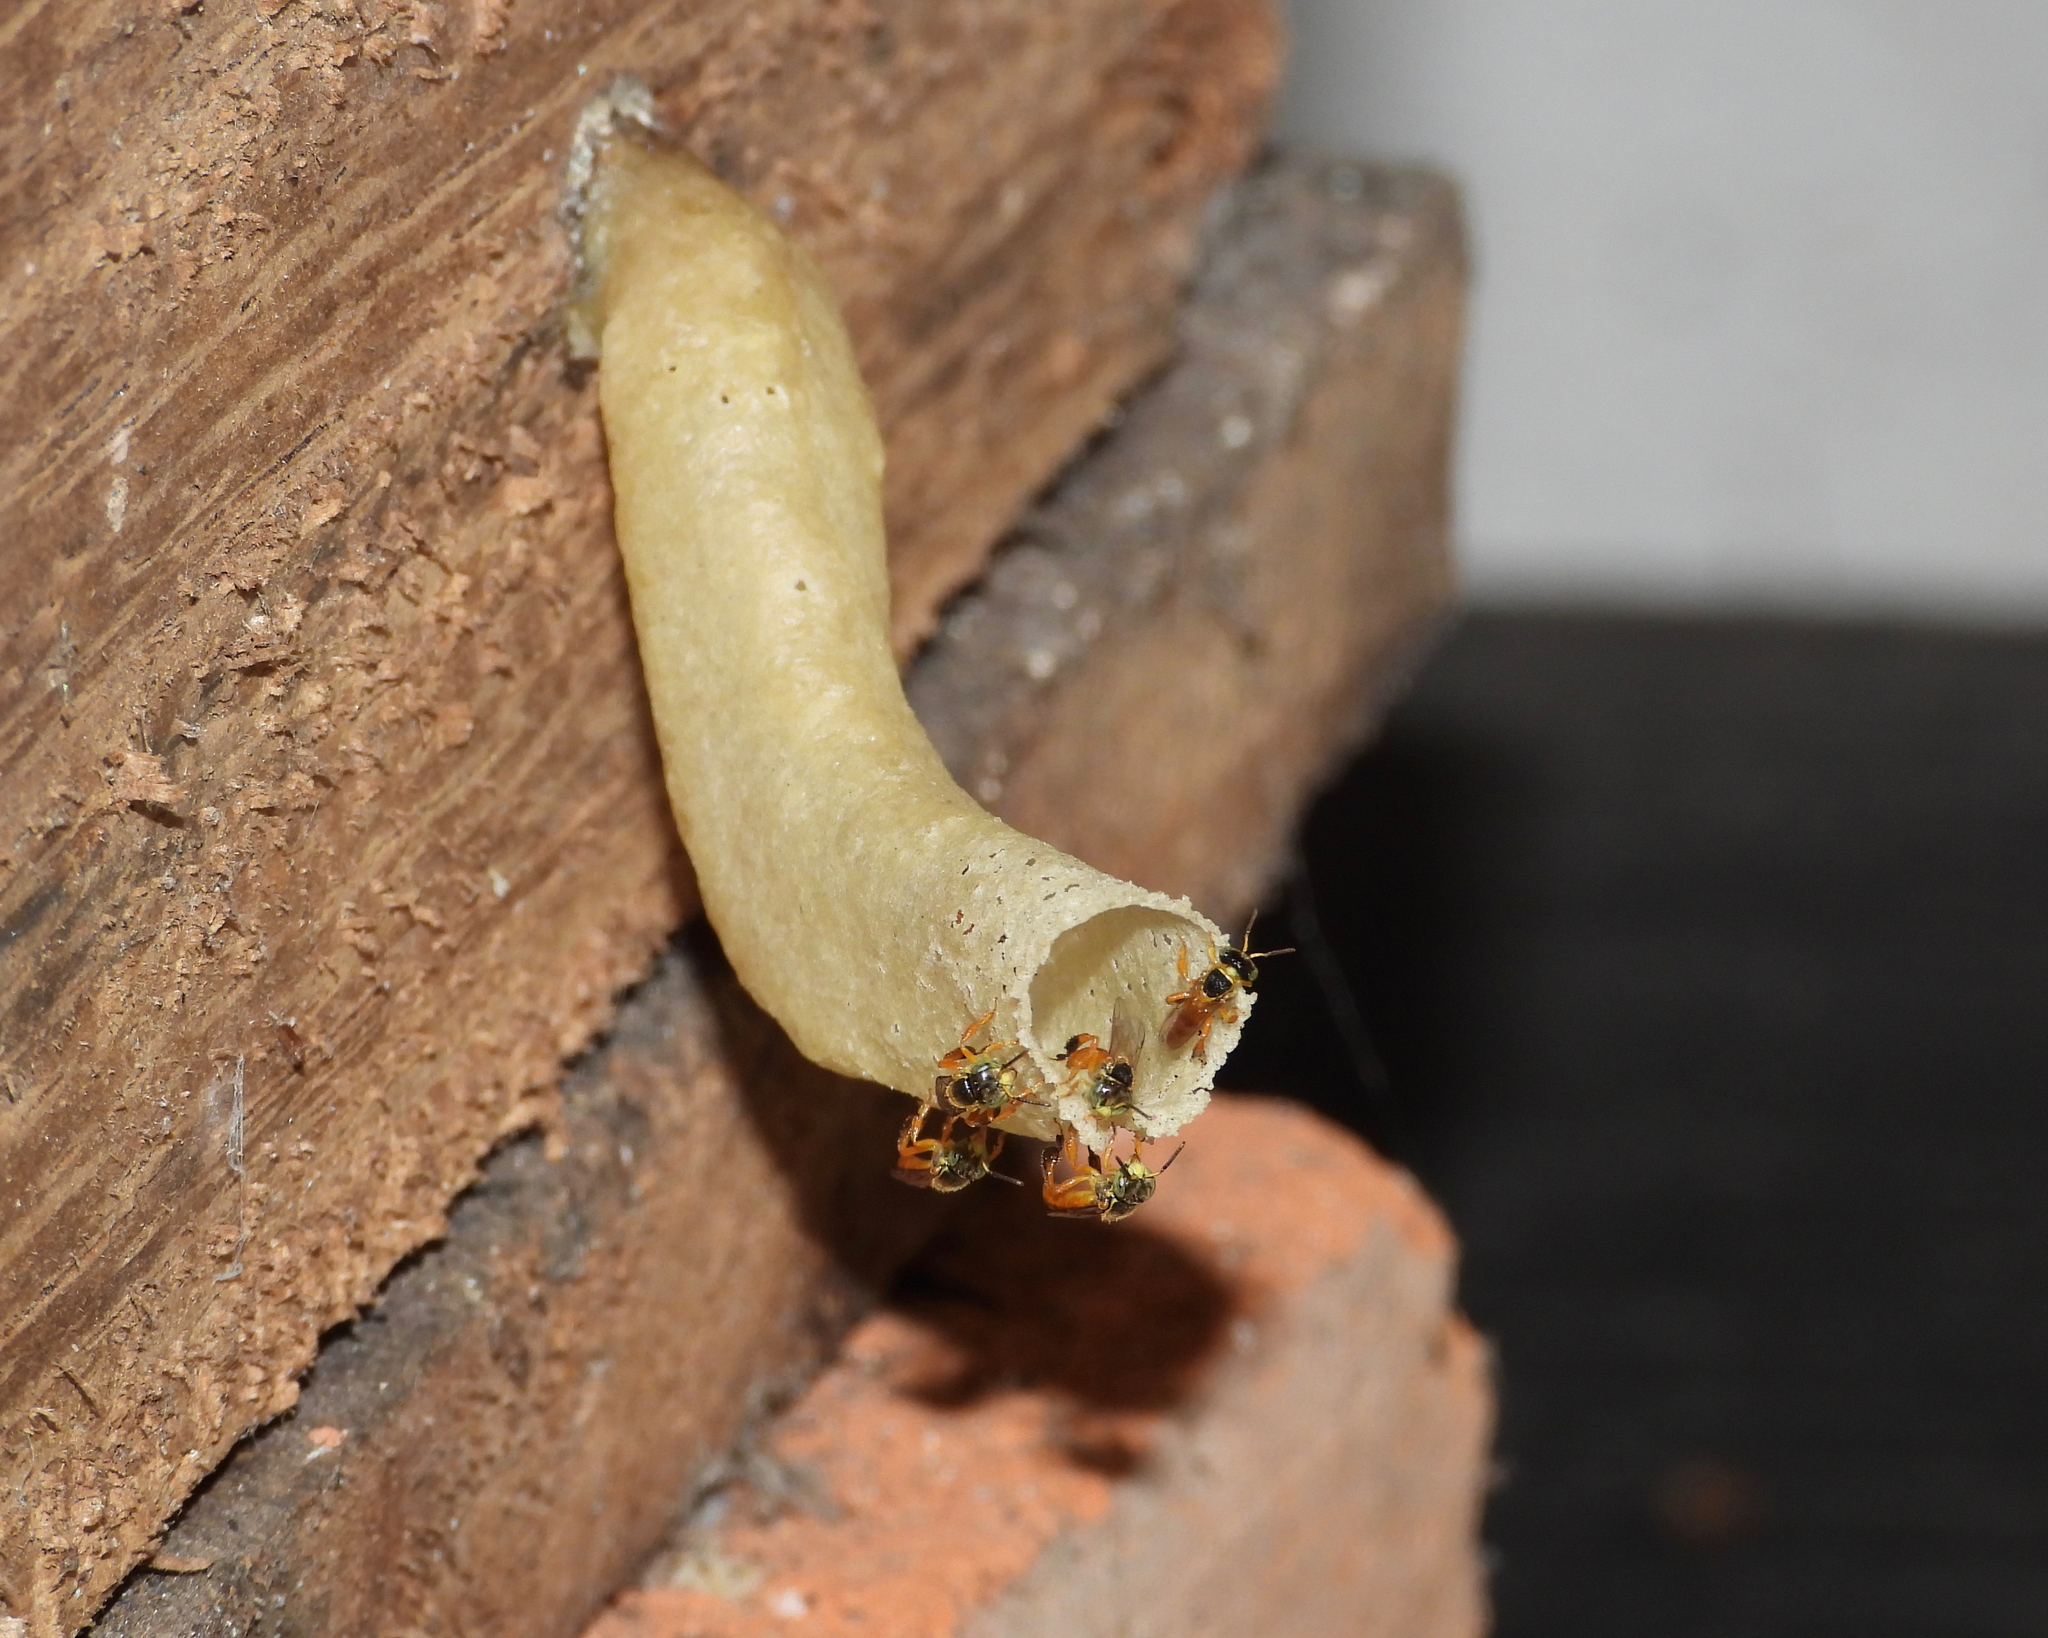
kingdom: Animalia
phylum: Arthropoda
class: Insecta
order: Hymenoptera
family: Apidae
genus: Tetragonisca
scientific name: Tetragonisca angustula
